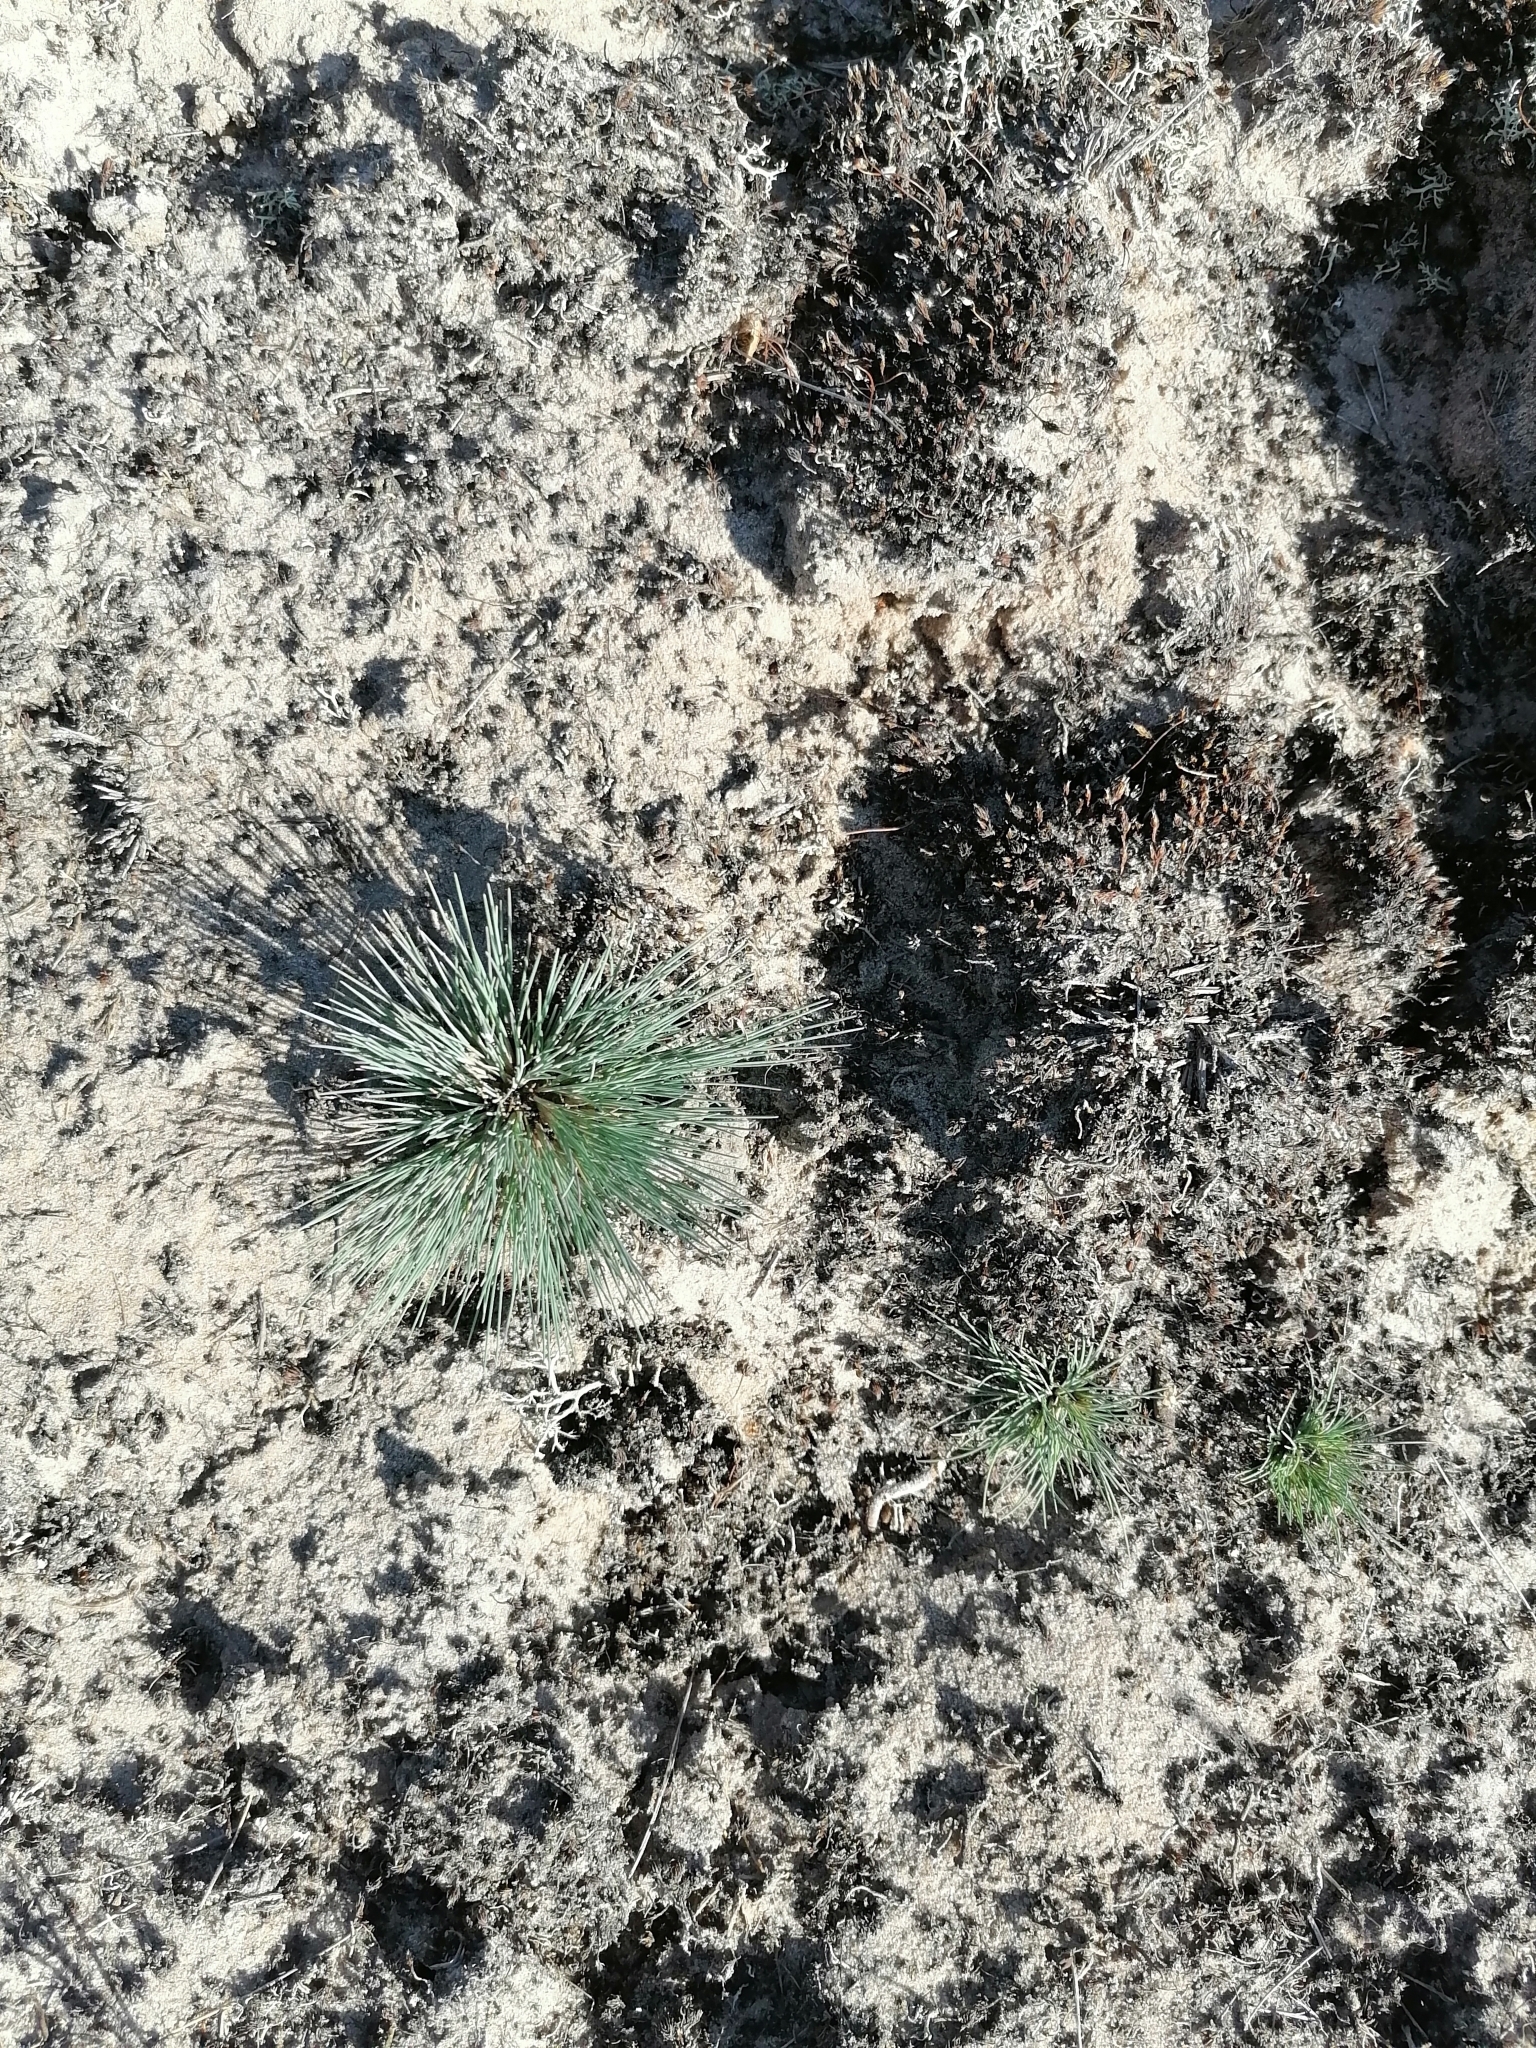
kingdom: Plantae
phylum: Tracheophyta
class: Liliopsida
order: Poales
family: Poaceae
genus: Corynephorus
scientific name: Corynephorus canescens
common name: Grey hair-grass
